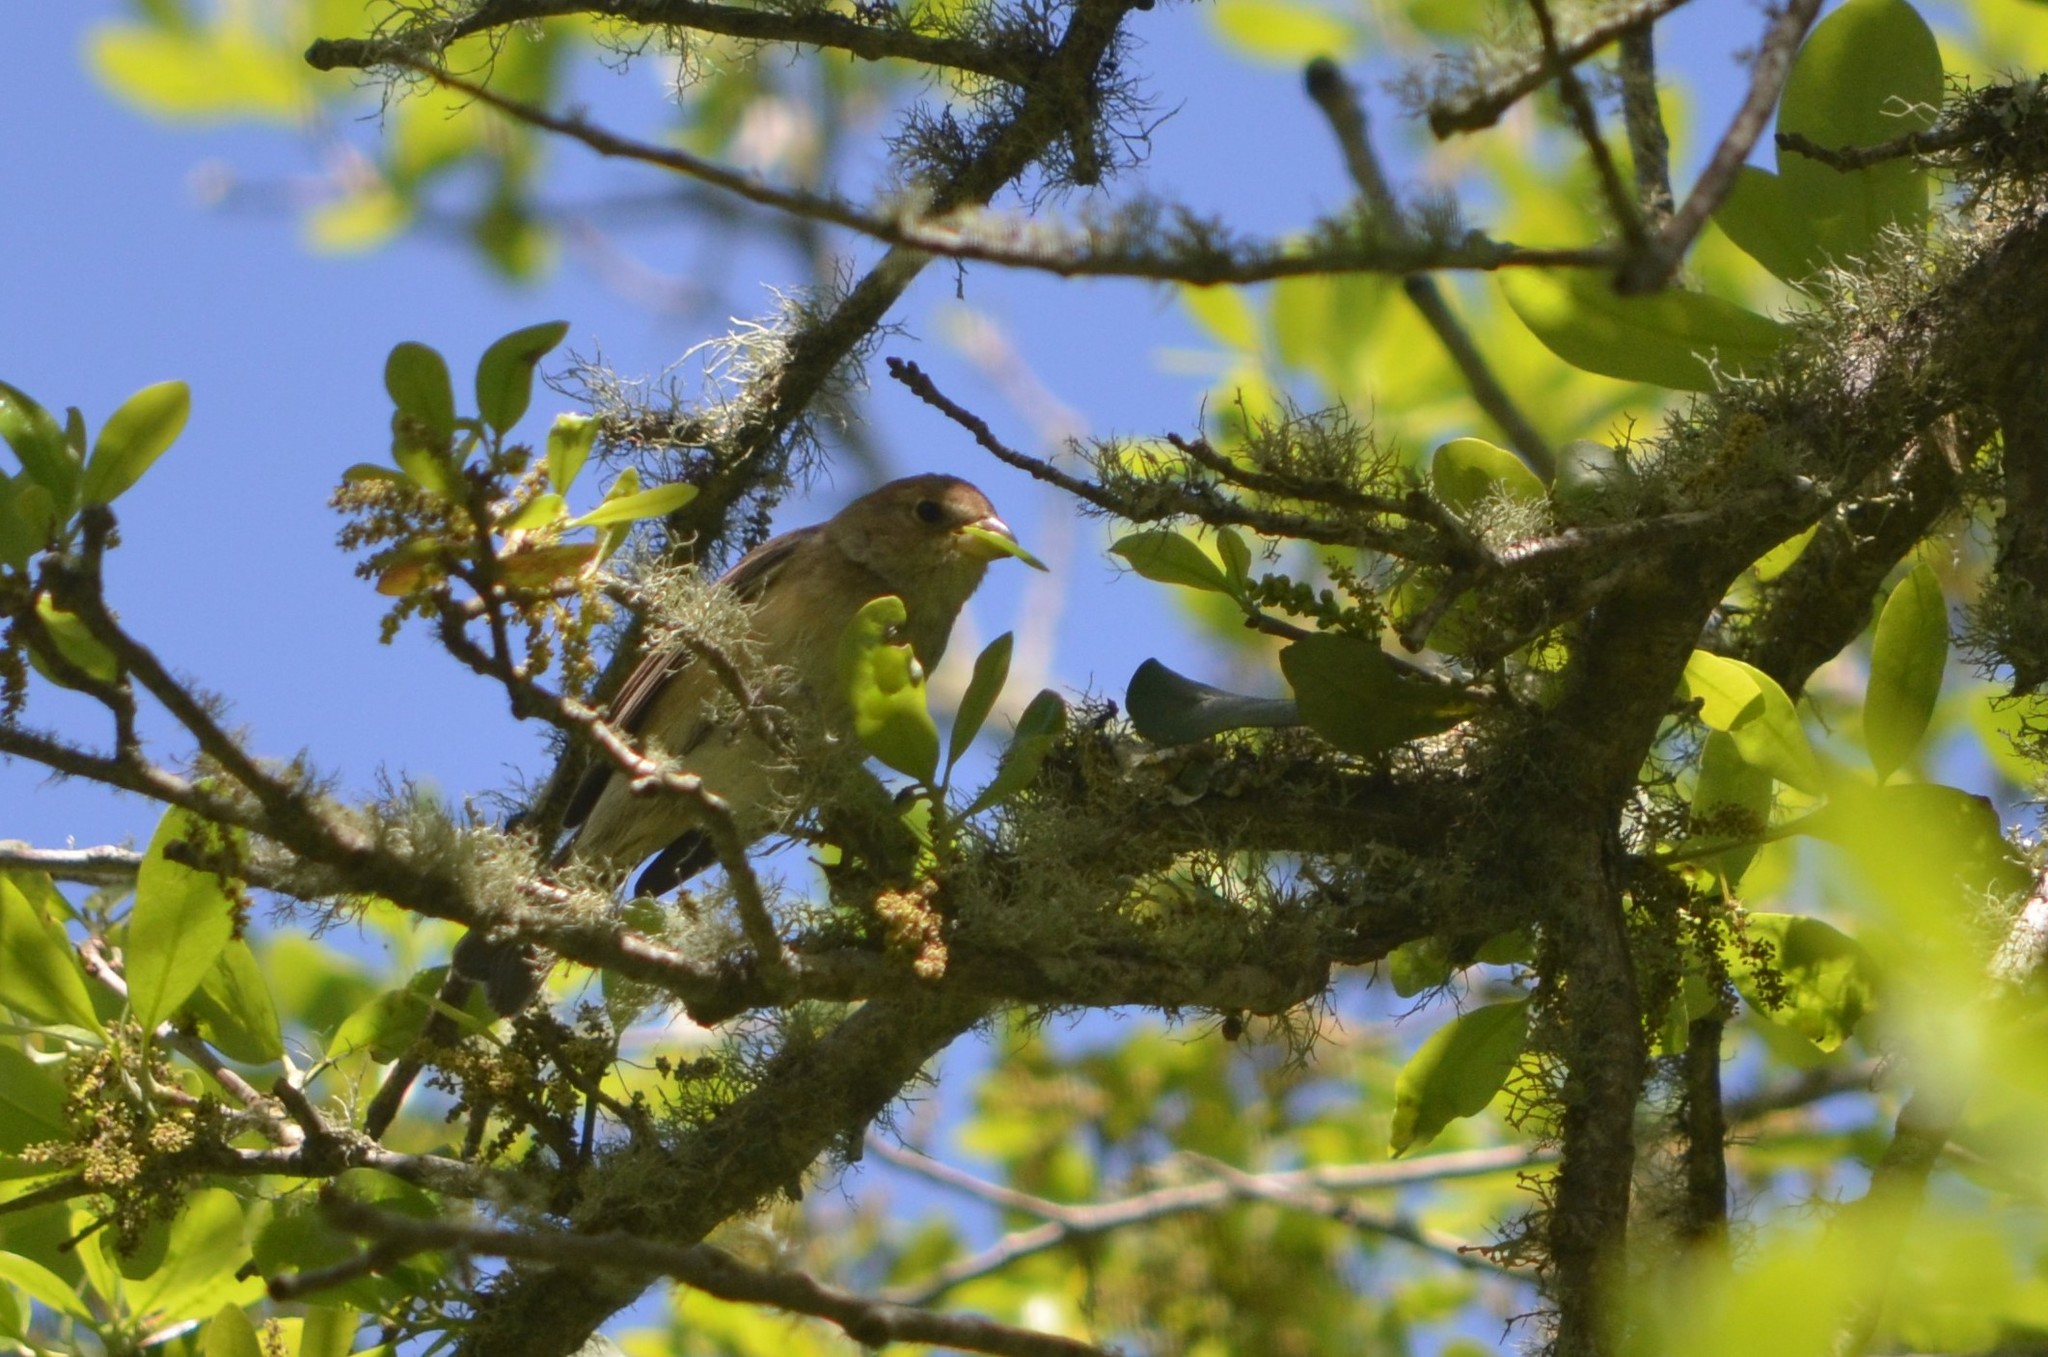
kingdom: Animalia
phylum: Chordata
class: Aves
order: Passeriformes
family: Cardinalidae
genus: Passerina
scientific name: Passerina cyanea
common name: Indigo bunting
